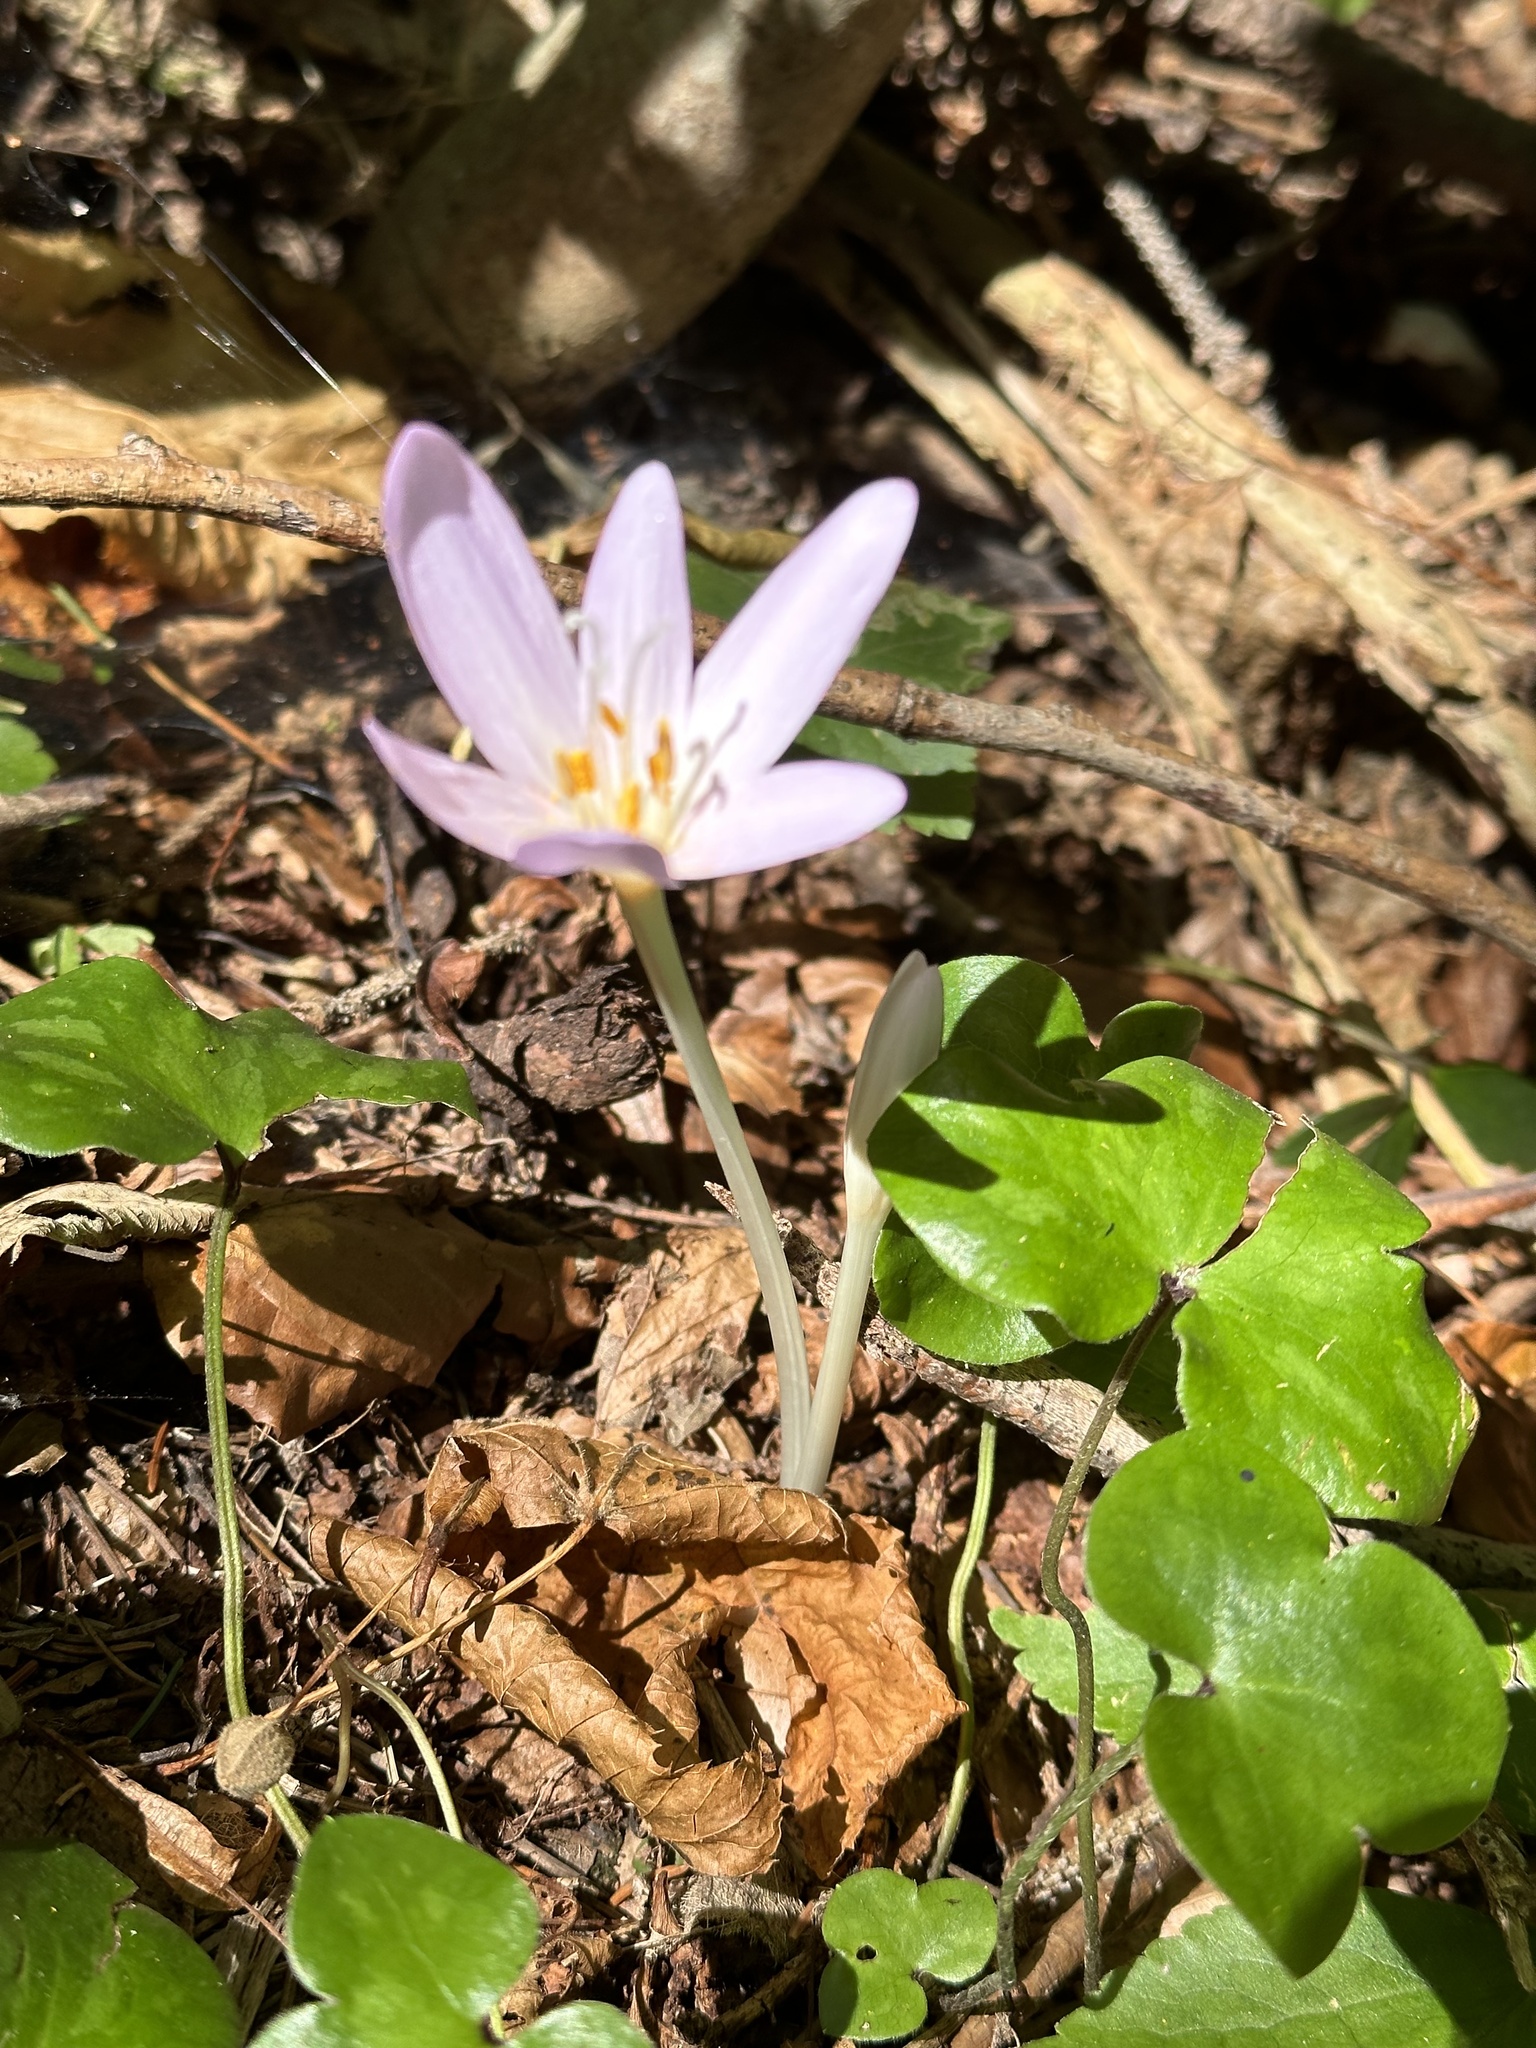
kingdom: Plantae
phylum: Tracheophyta
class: Liliopsida
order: Liliales
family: Colchicaceae
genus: Colchicum
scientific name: Colchicum autumnale
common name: Autumn crocus
